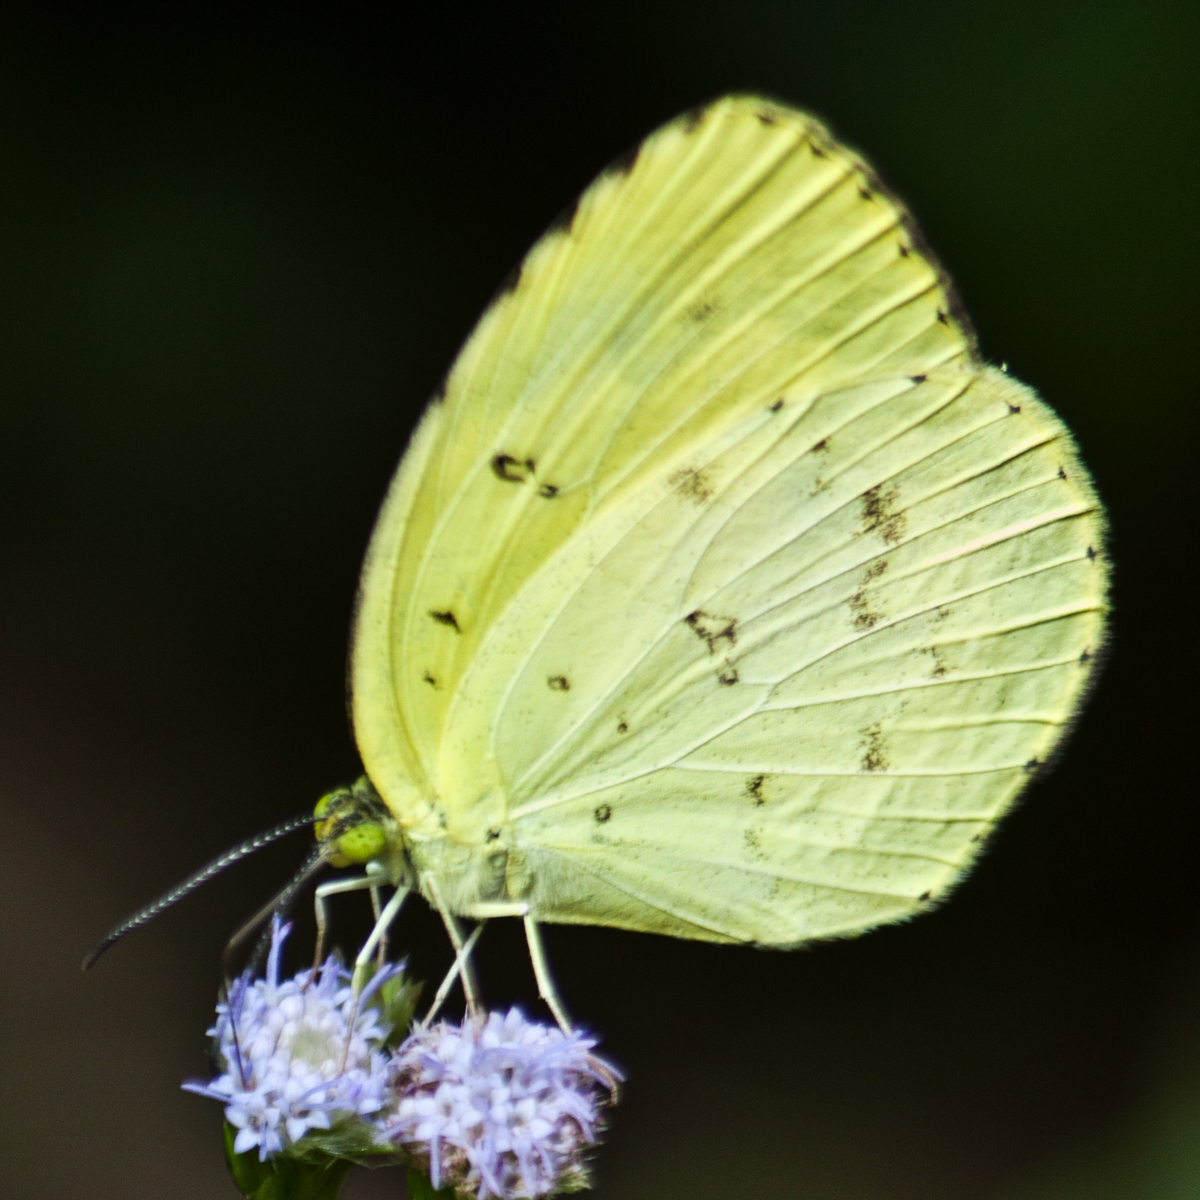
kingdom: Animalia
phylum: Arthropoda
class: Insecta
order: Lepidoptera
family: Pieridae
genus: Eurema
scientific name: Eurema hecabe
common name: Pale grass yellow
